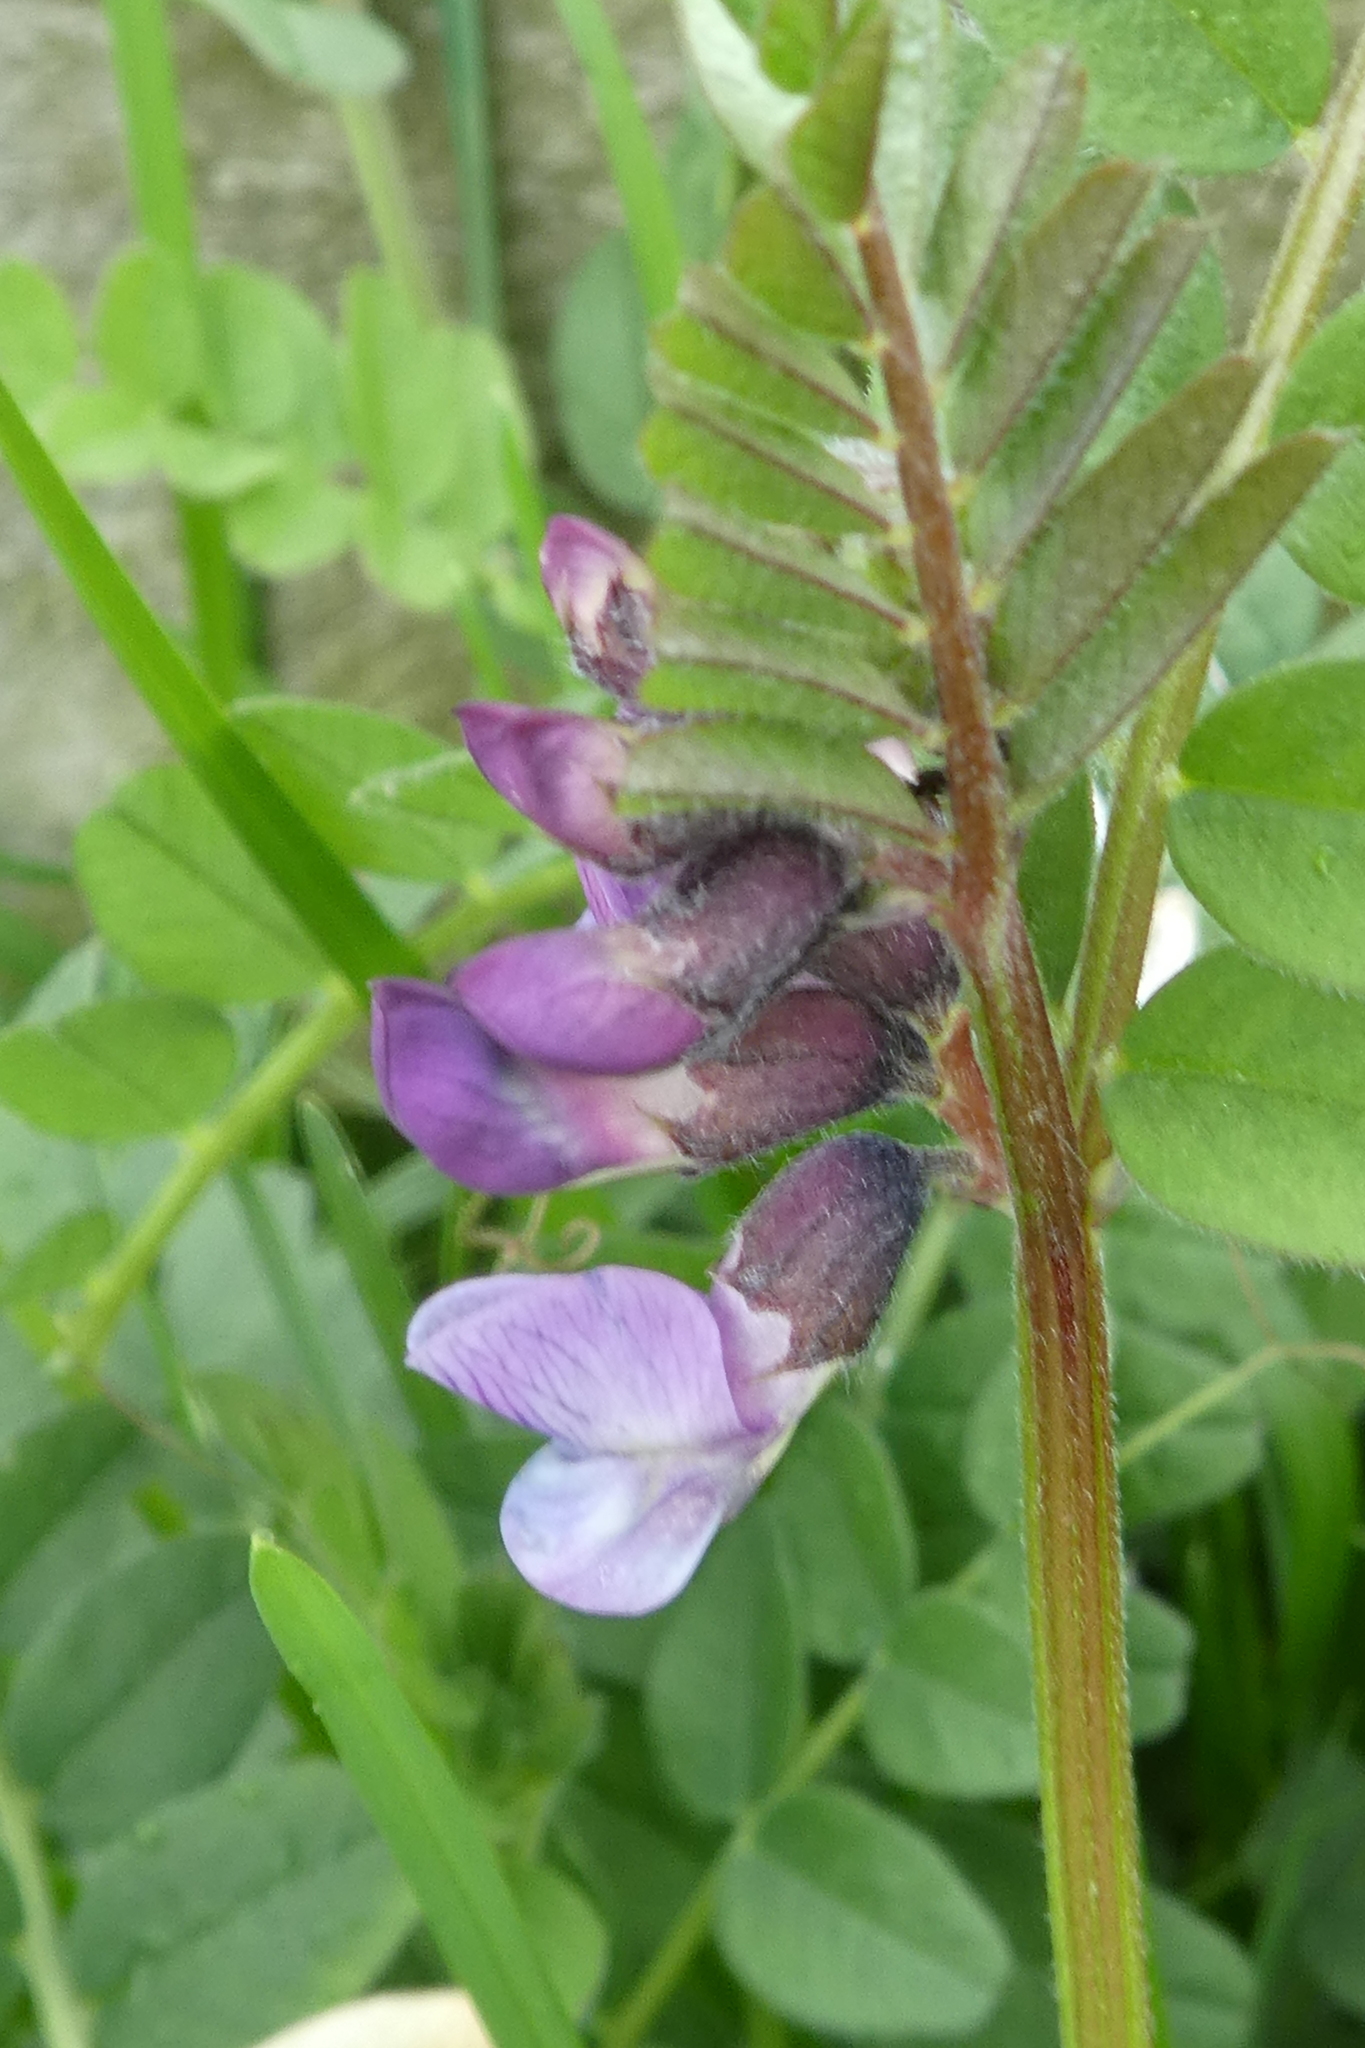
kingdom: Plantae
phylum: Tracheophyta
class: Magnoliopsida
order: Fabales
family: Fabaceae
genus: Vicia
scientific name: Vicia sepium
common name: Bush vetch
